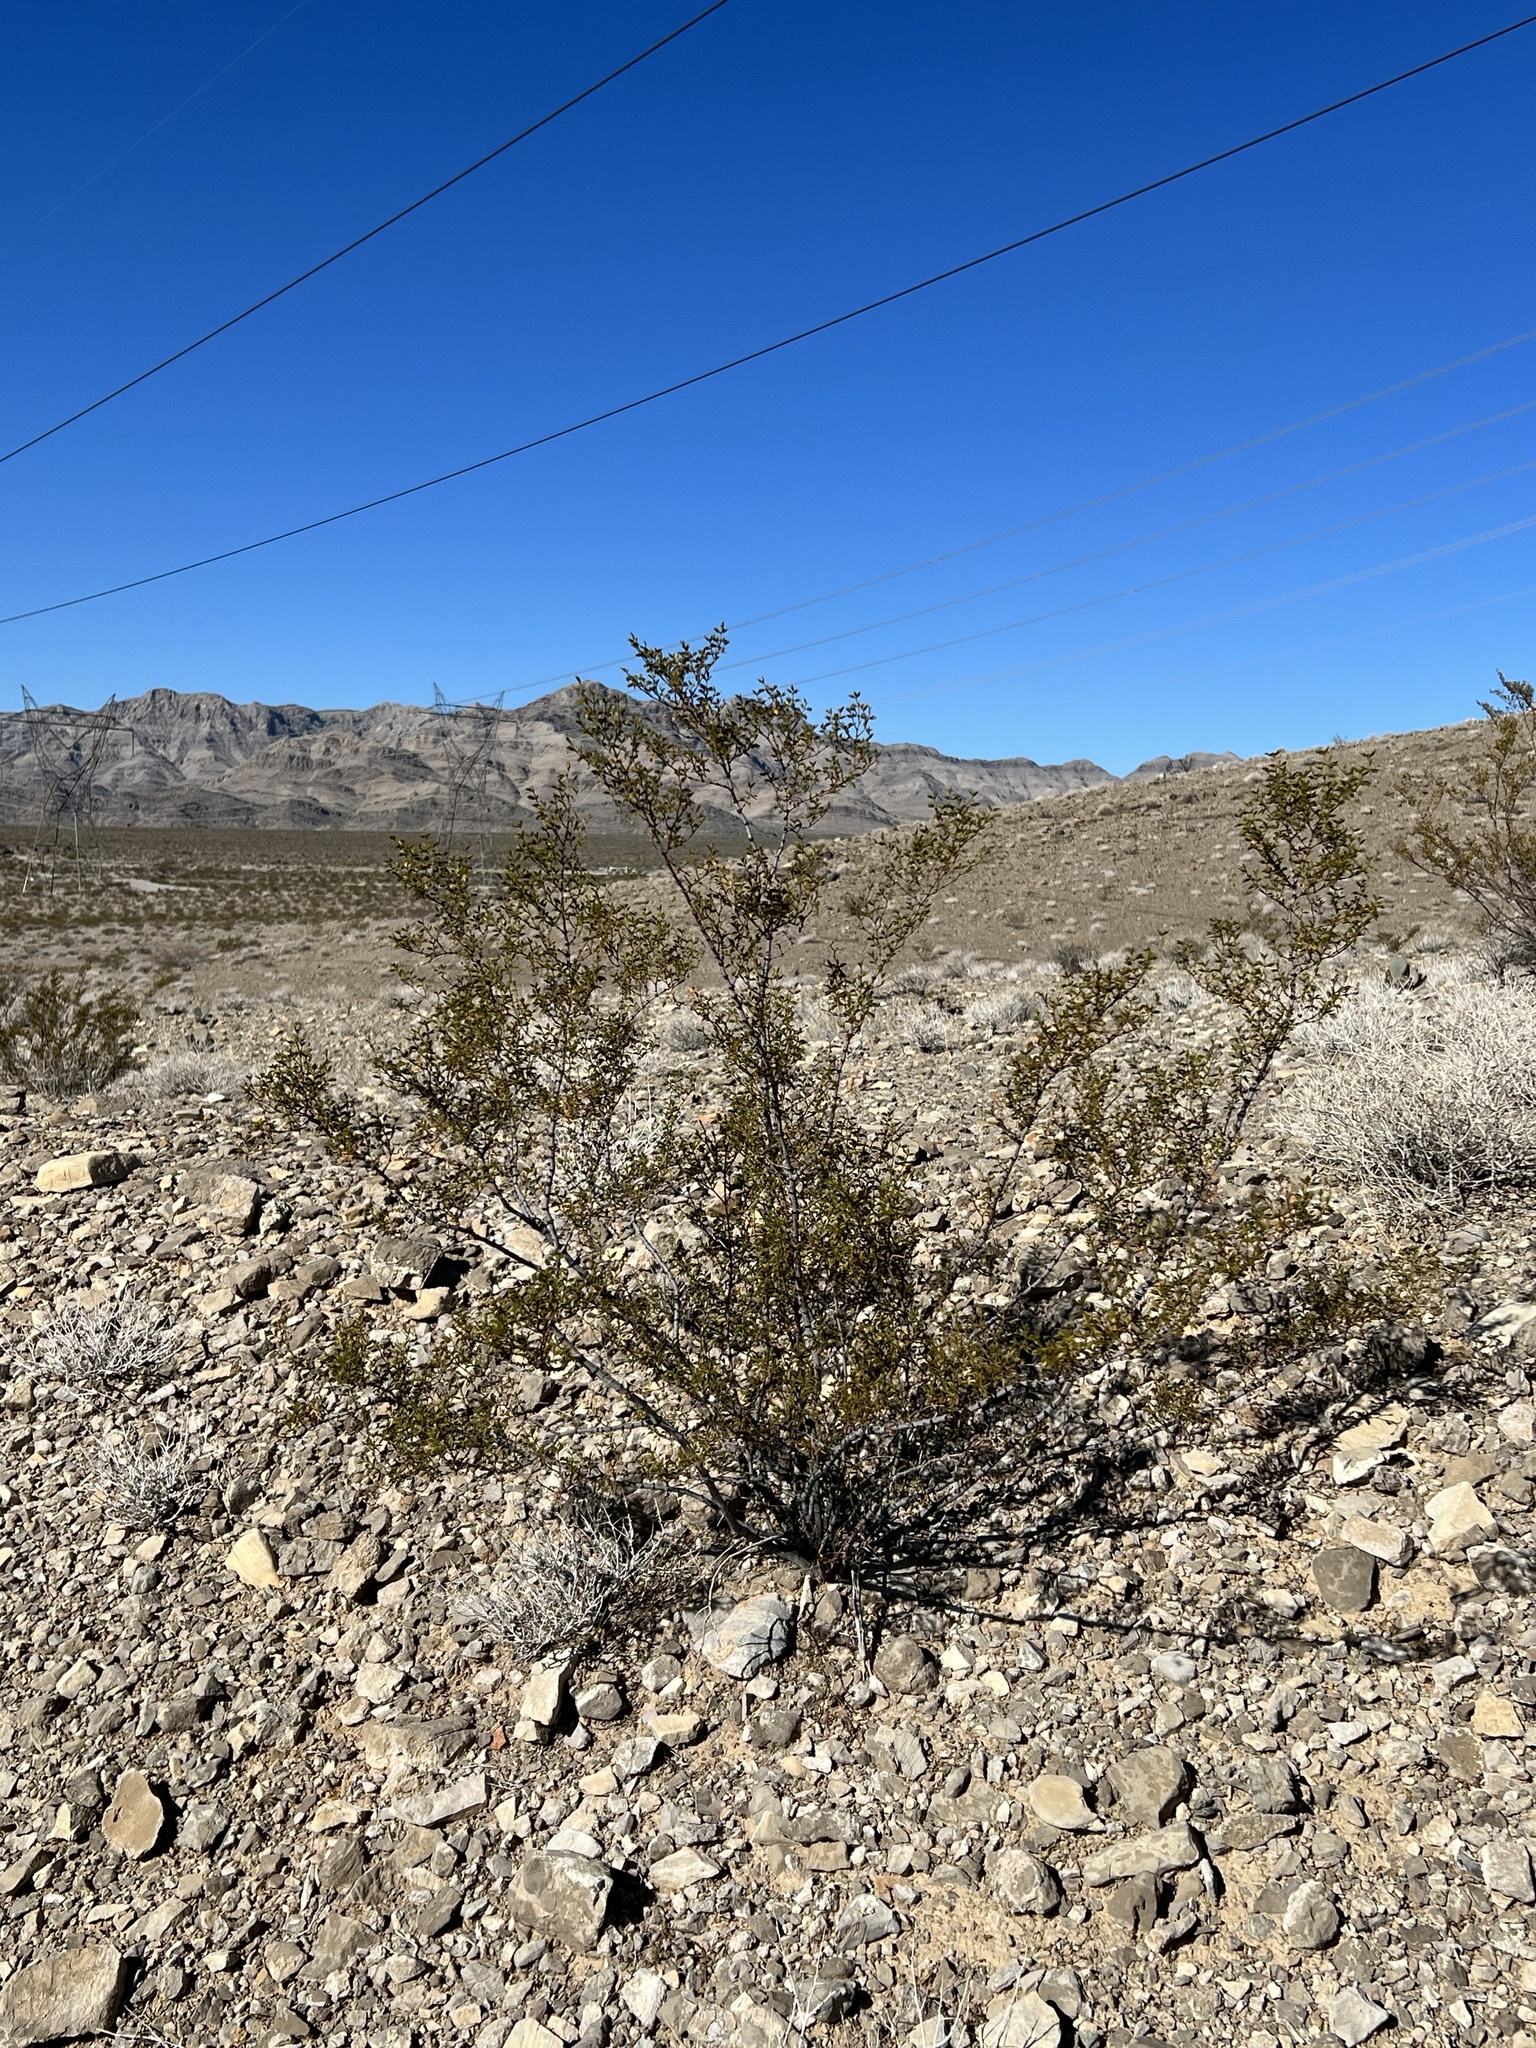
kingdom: Plantae
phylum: Tracheophyta
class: Magnoliopsida
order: Zygophyllales
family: Zygophyllaceae
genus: Larrea
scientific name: Larrea tridentata
